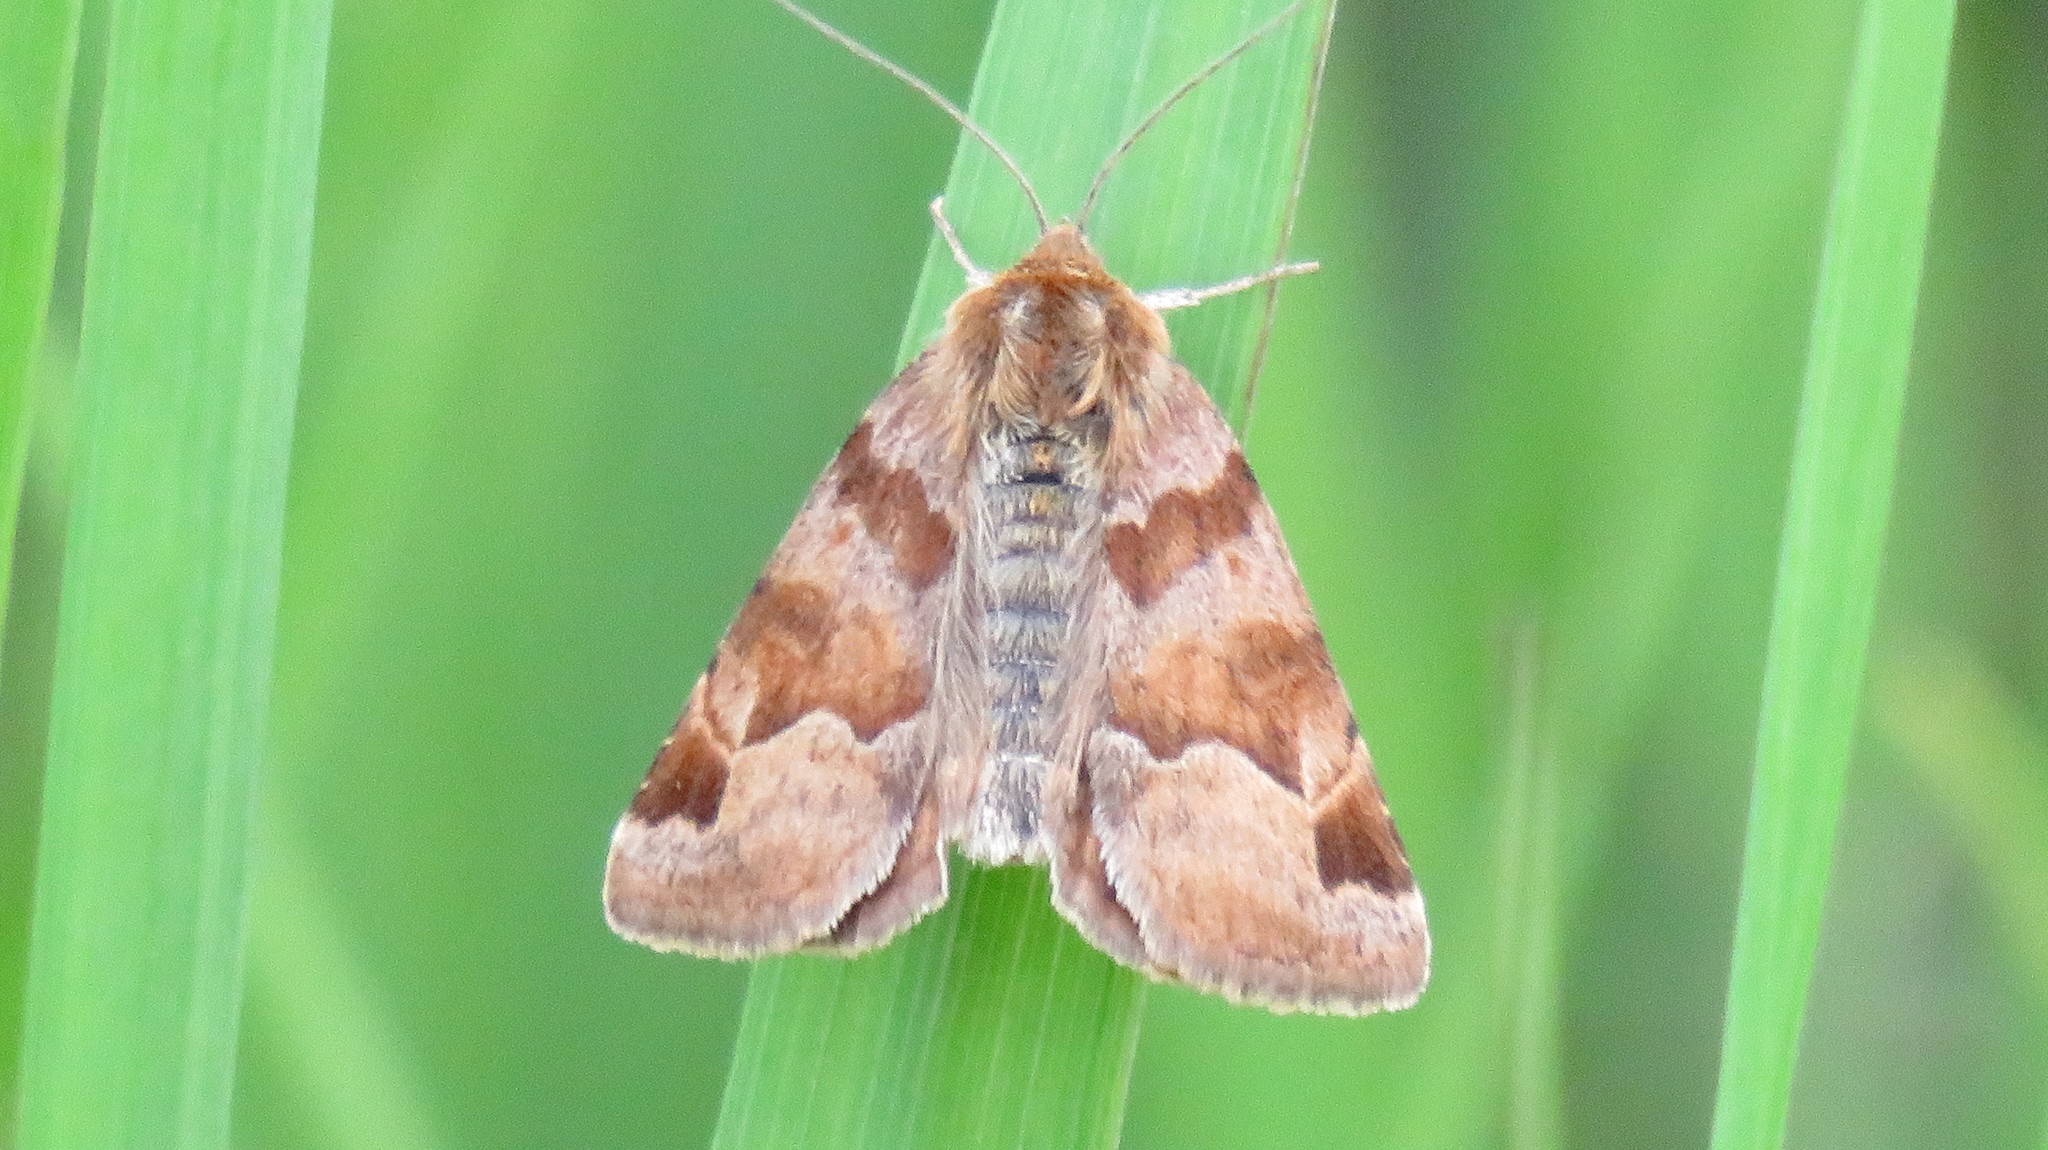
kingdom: Animalia
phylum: Arthropoda
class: Insecta
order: Lepidoptera
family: Erebidae
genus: Euclidia
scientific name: Euclidia glyphica
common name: Burnet companion
